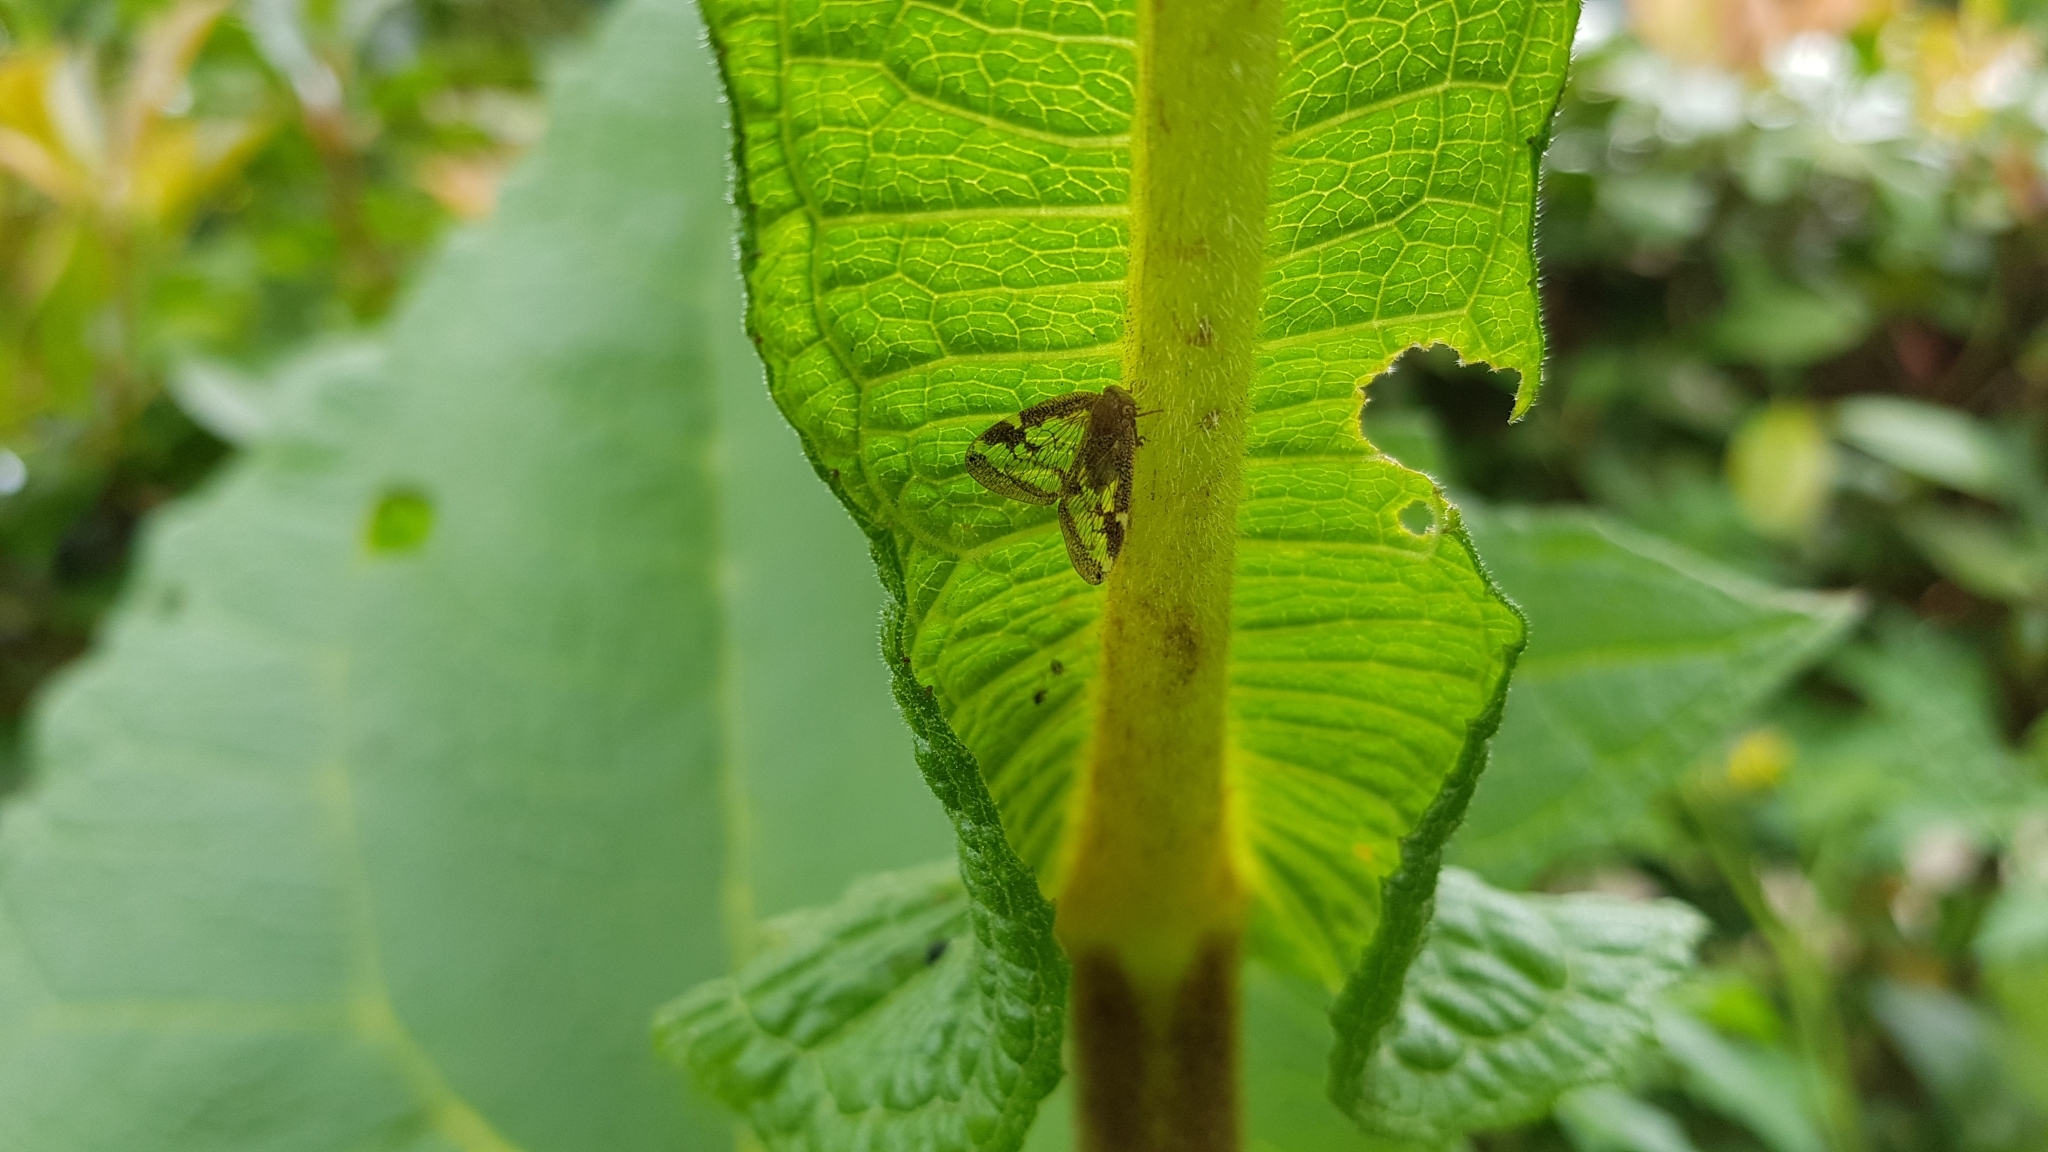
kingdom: Animalia
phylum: Arthropoda
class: Insecta
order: Hemiptera
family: Ricaniidae
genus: Scolypopa
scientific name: Scolypopa australis
